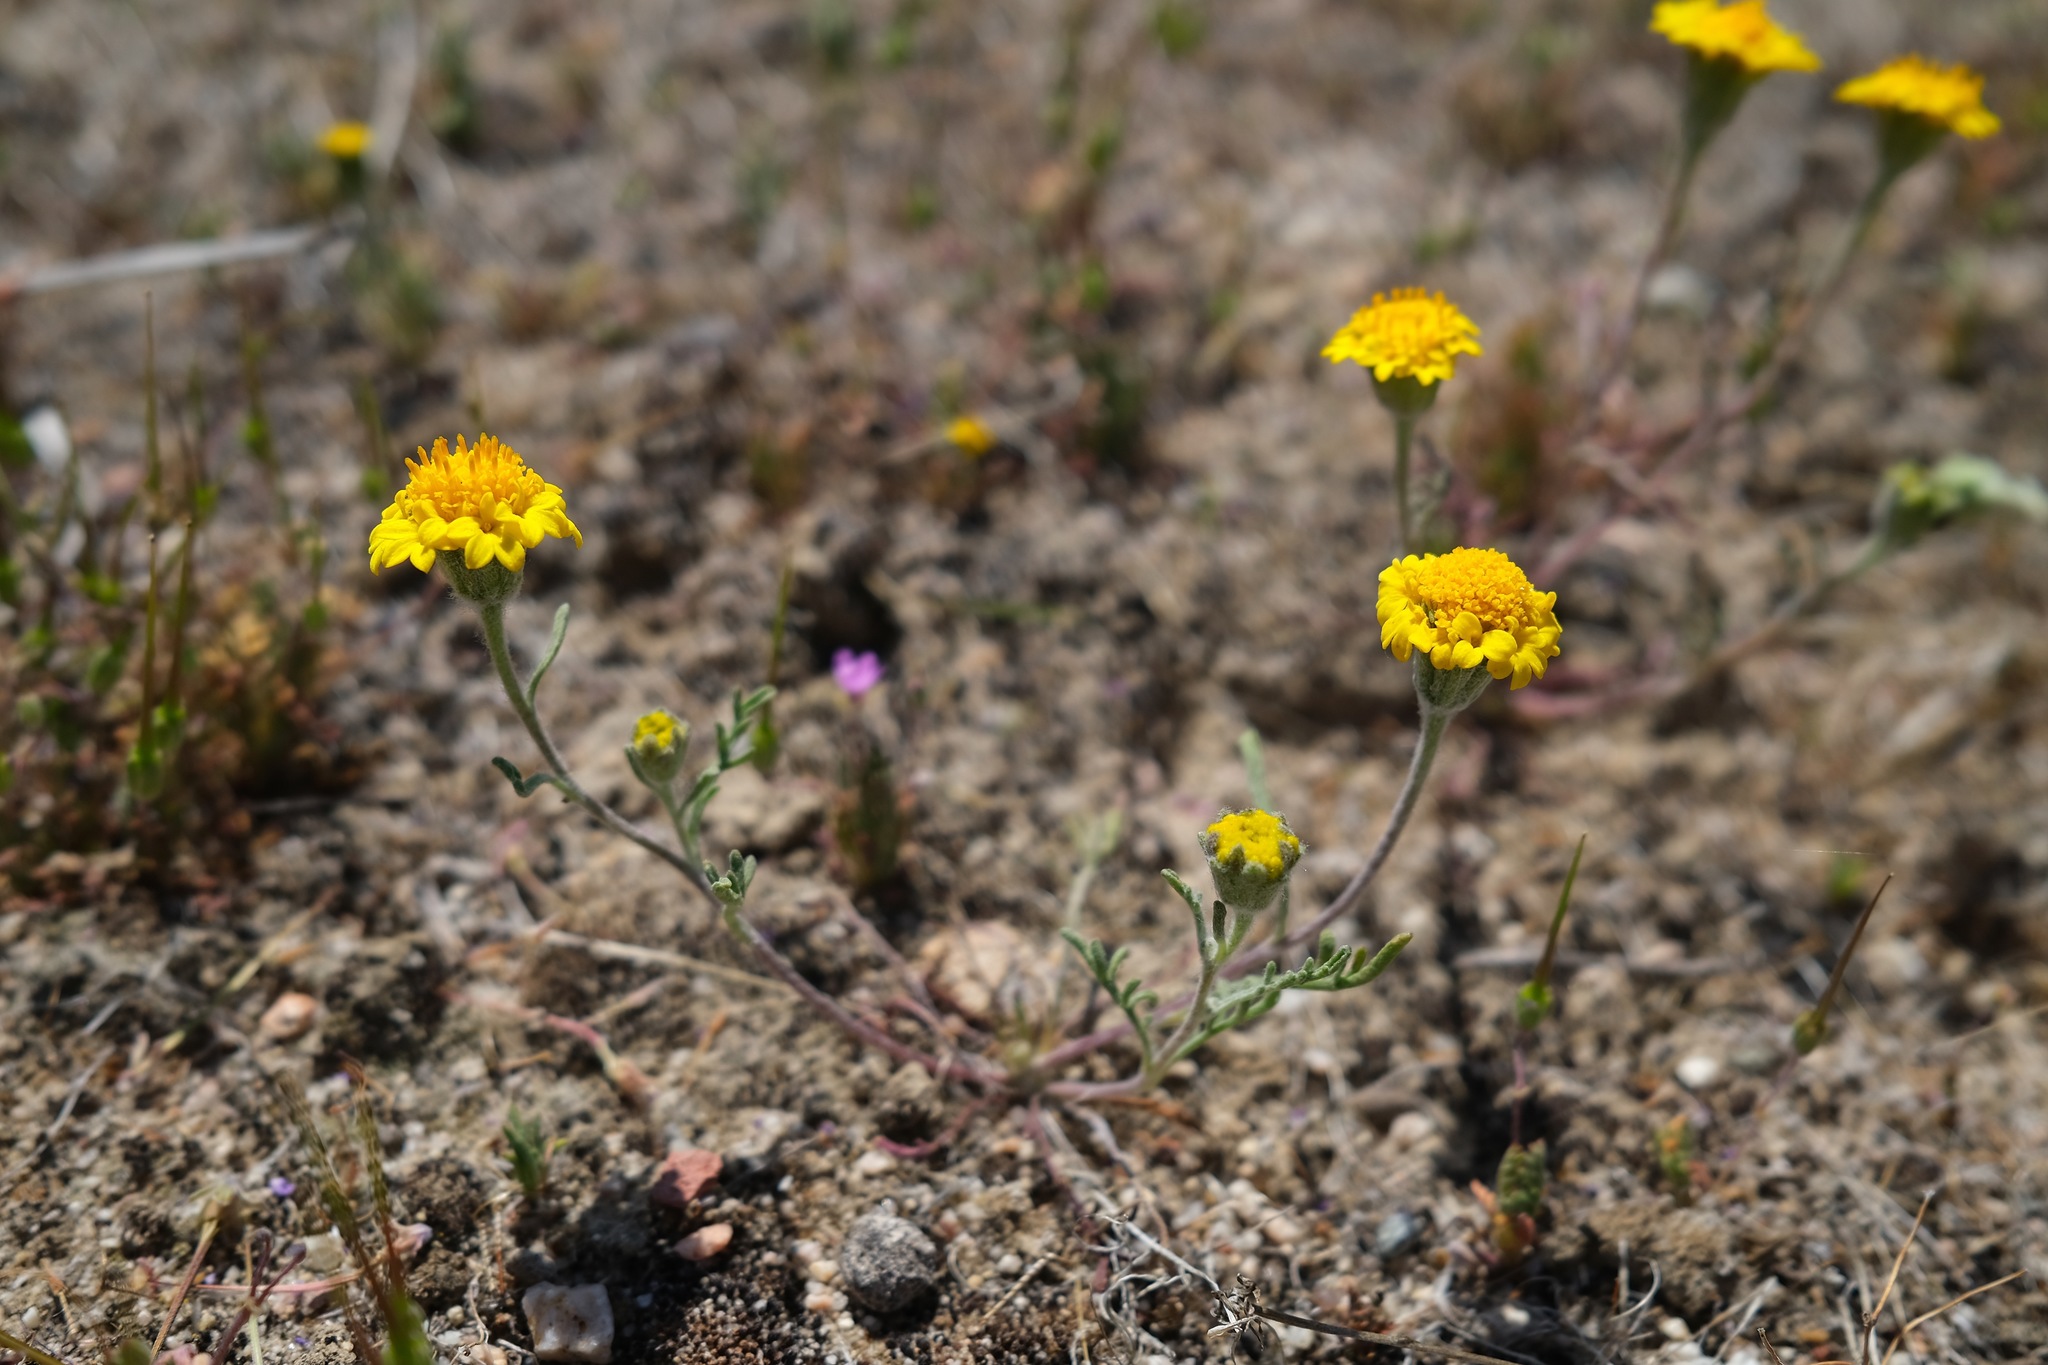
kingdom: Plantae
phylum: Tracheophyta
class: Magnoliopsida
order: Asterales
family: Asteraceae
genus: Chaenactis
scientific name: Chaenactis glabriuscula
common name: Yellow pincushion
